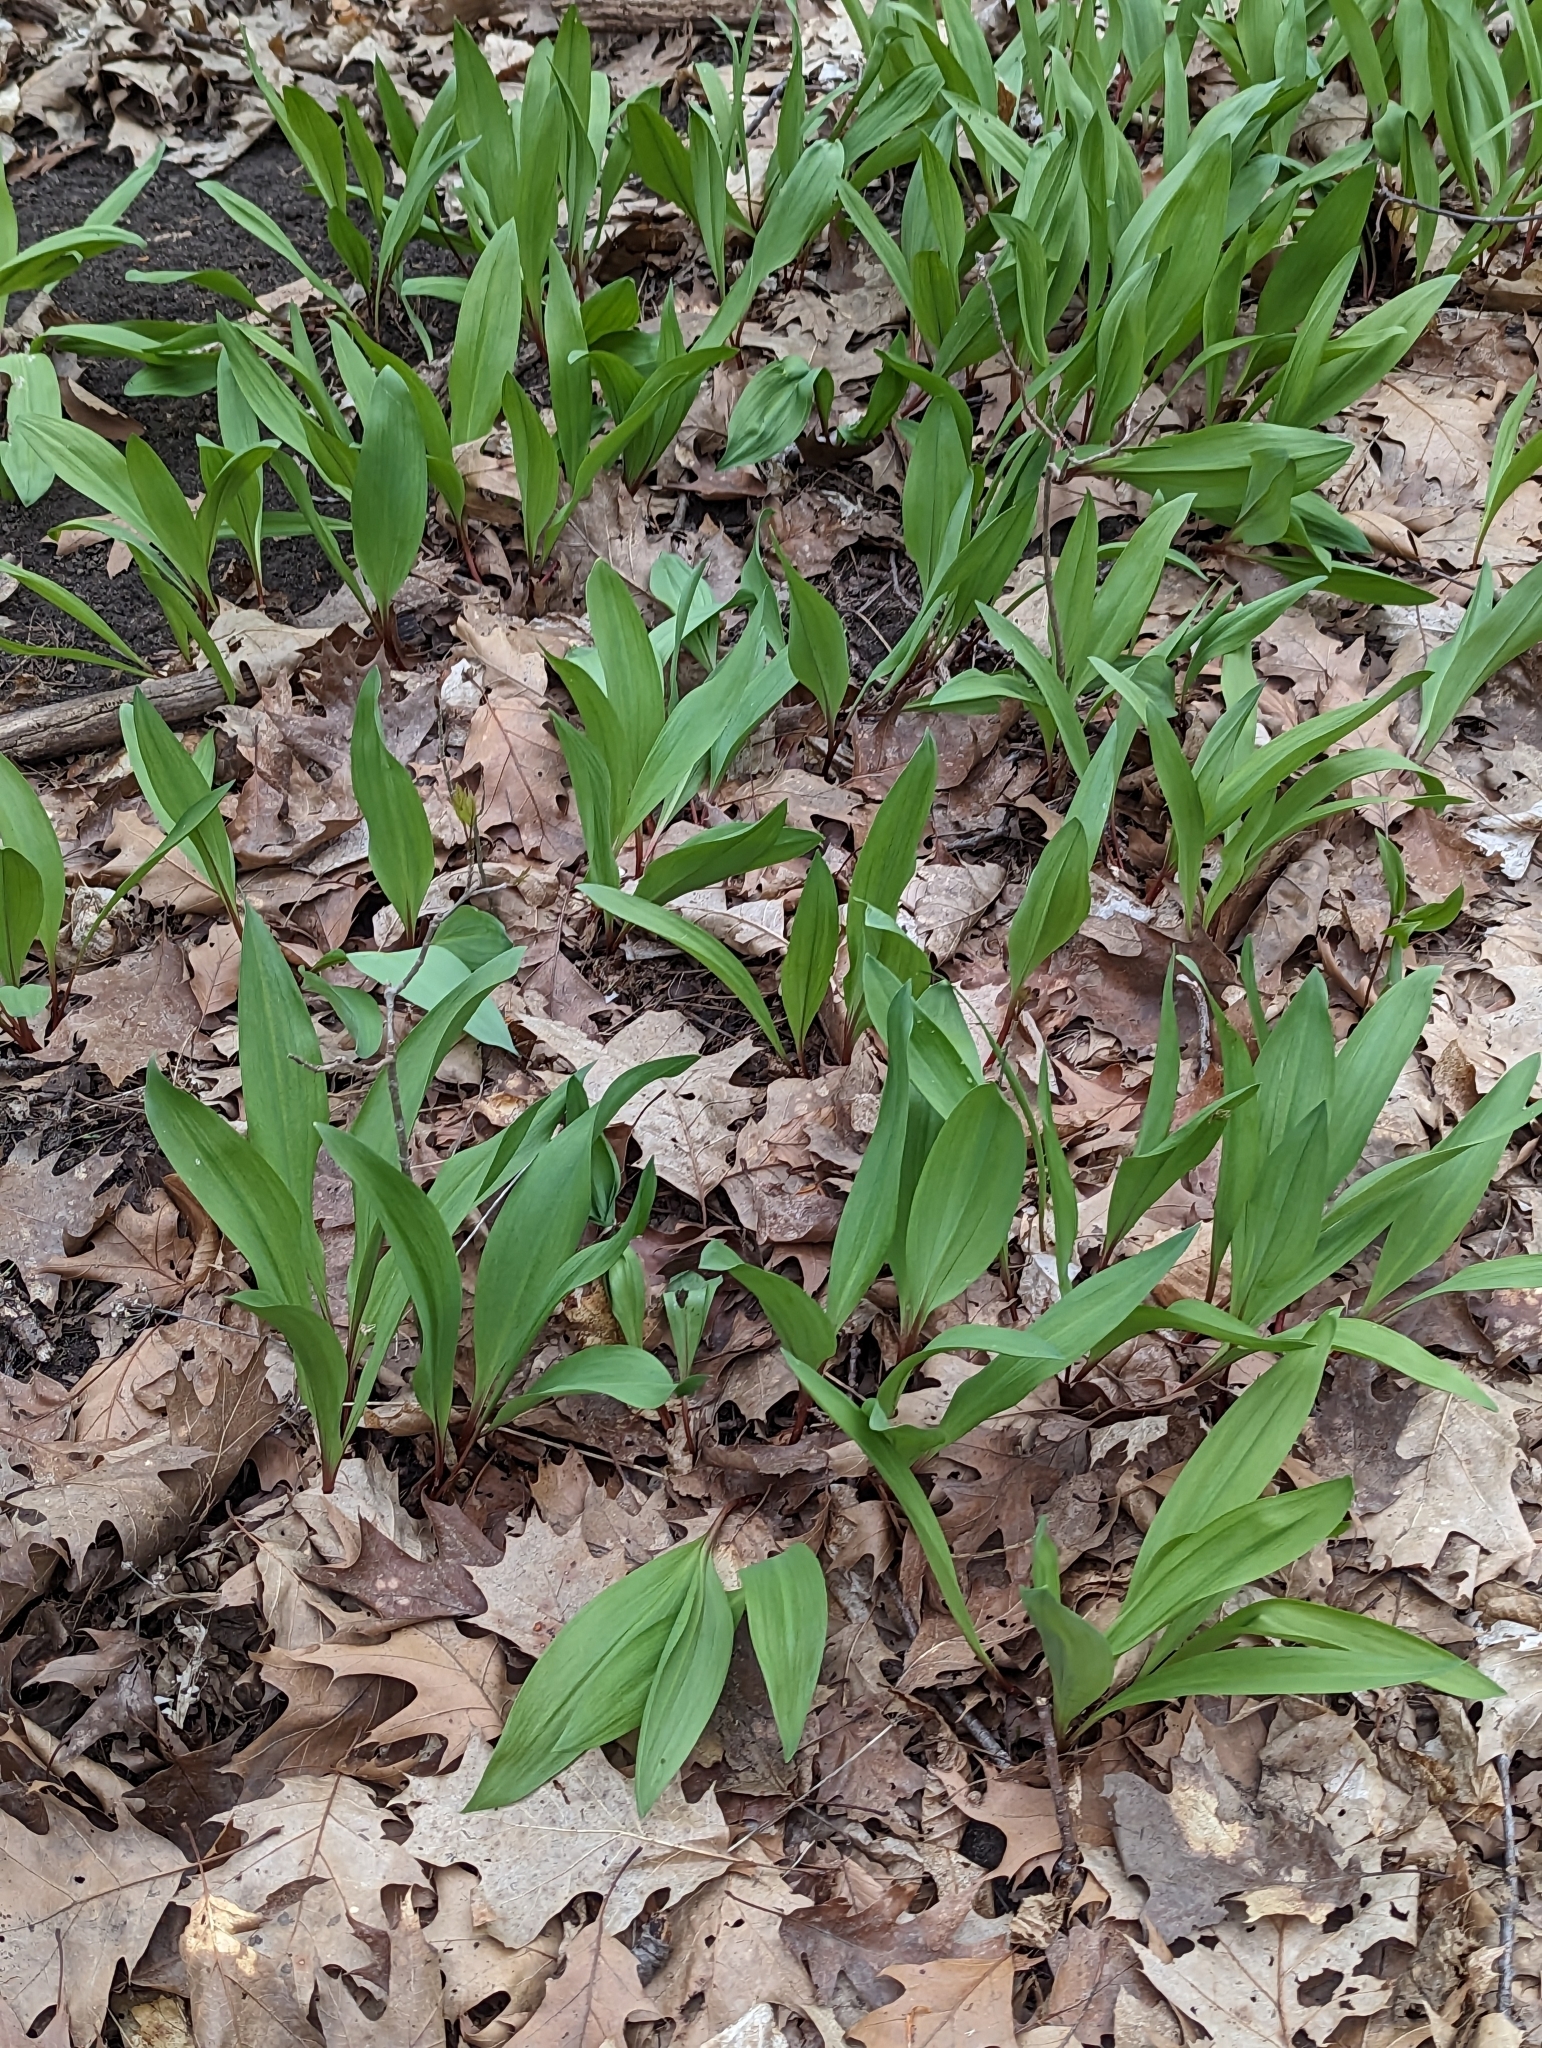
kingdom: Plantae
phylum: Tracheophyta
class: Liliopsida
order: Asparagales
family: Amaryllidaceae
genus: Allium
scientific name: Allium tricoccum
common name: Ramp
